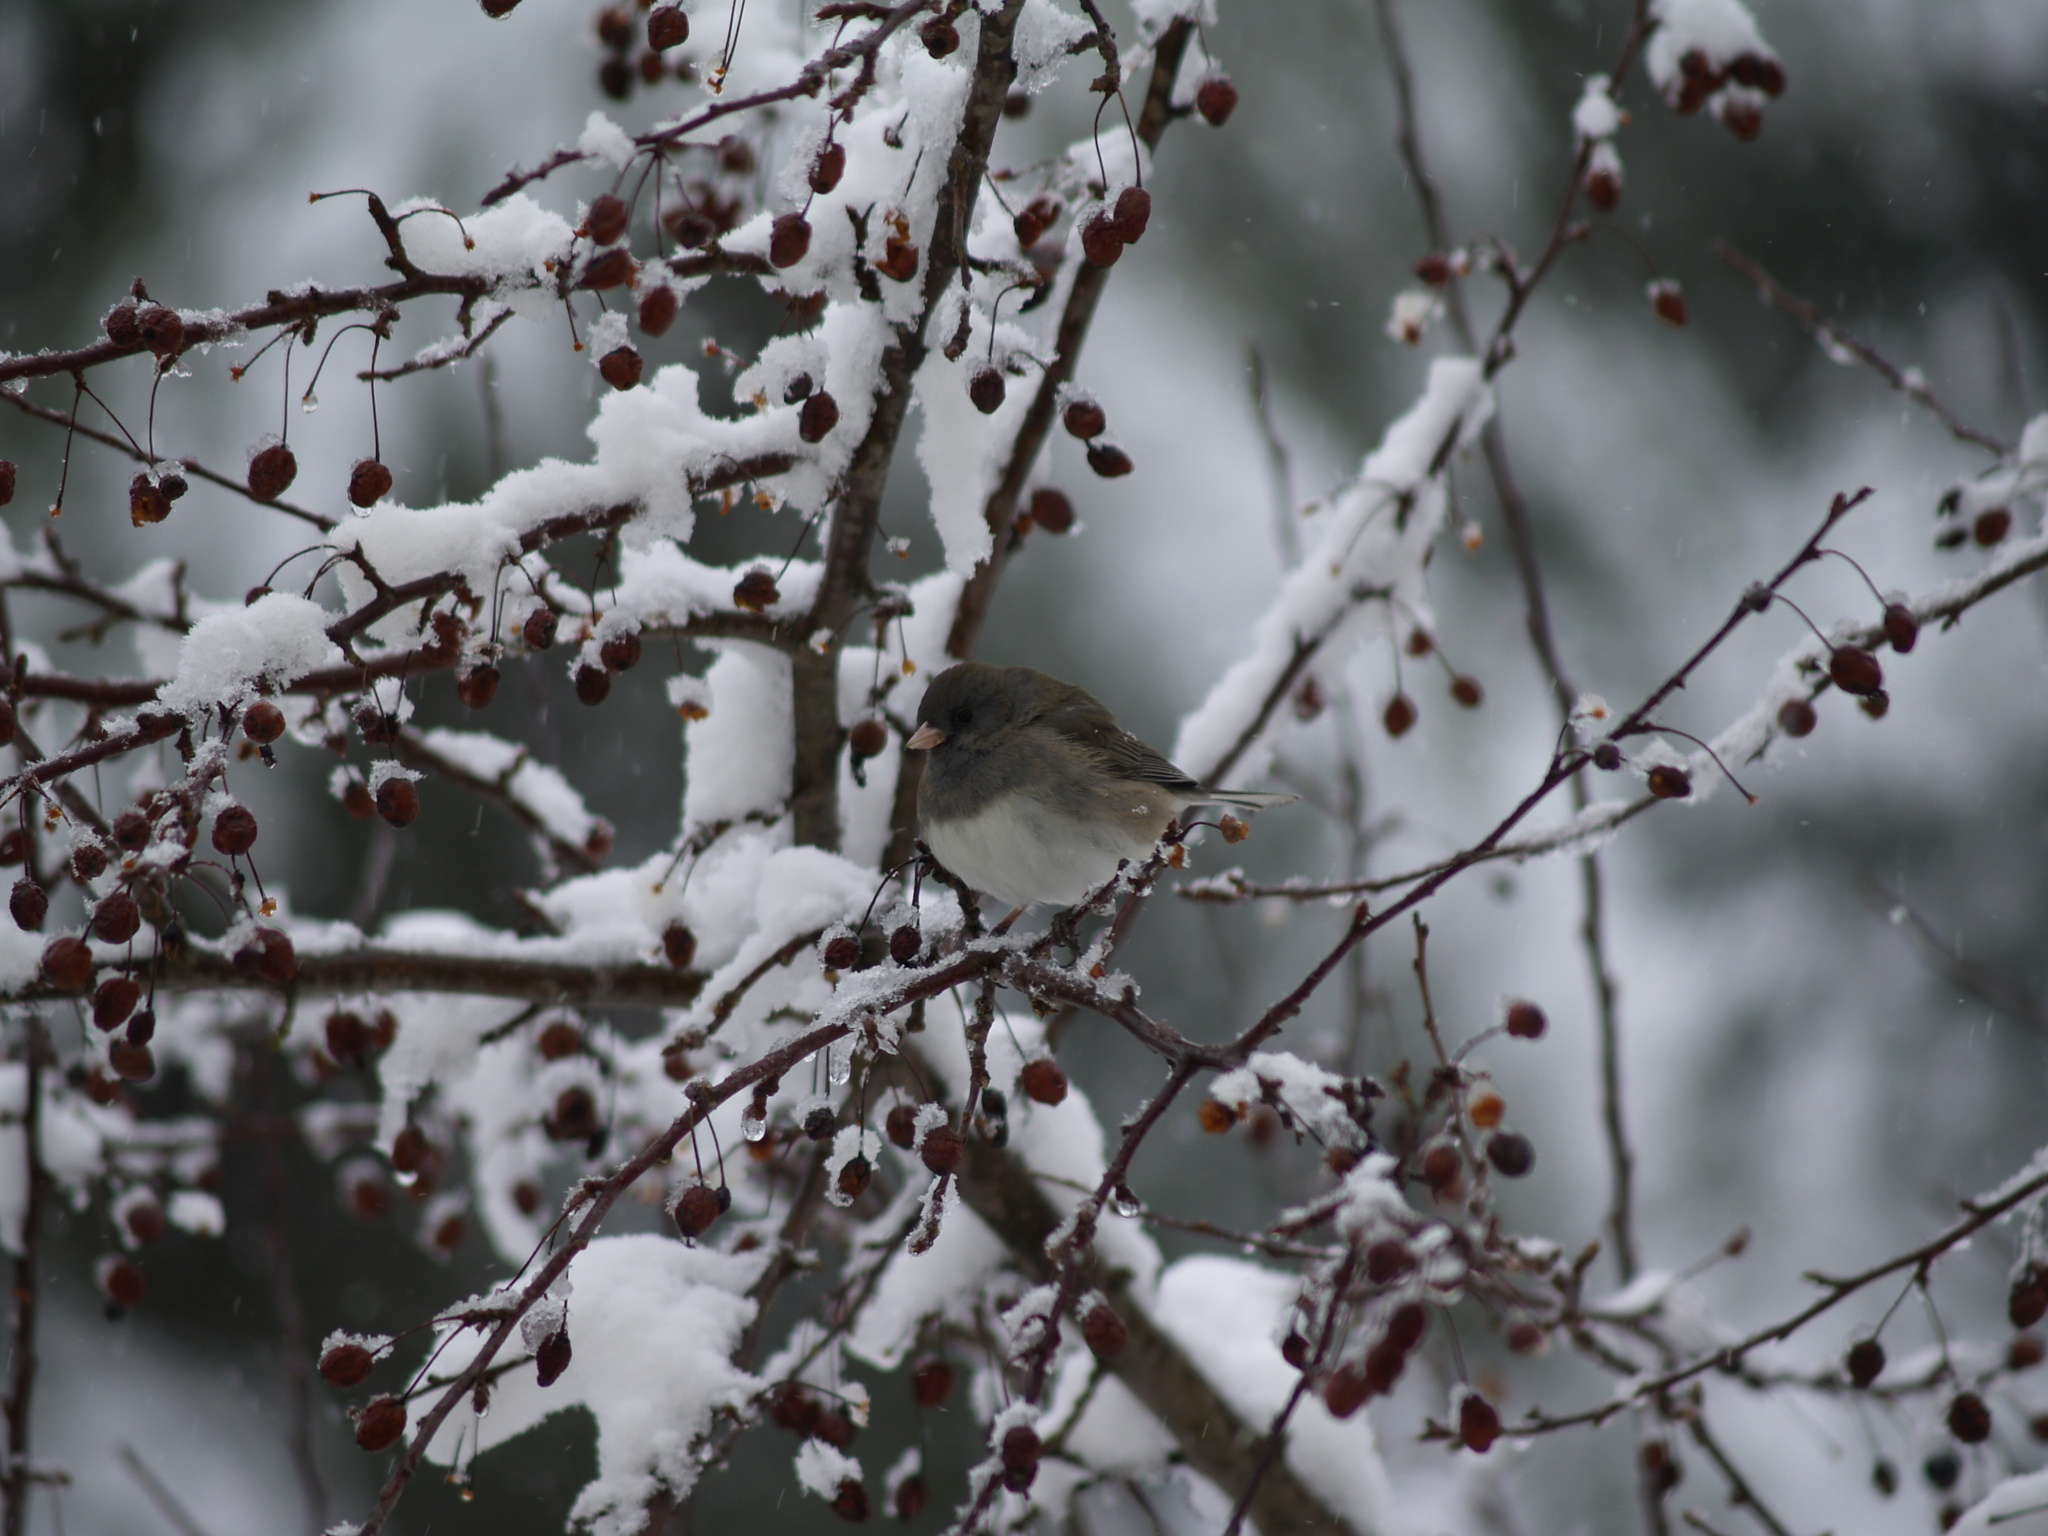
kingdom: Animalia
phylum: Chordata
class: Aves
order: Passeriformes
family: Passerellidae
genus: Junco
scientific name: Junco hyemalis
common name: Dark-eyed junco
